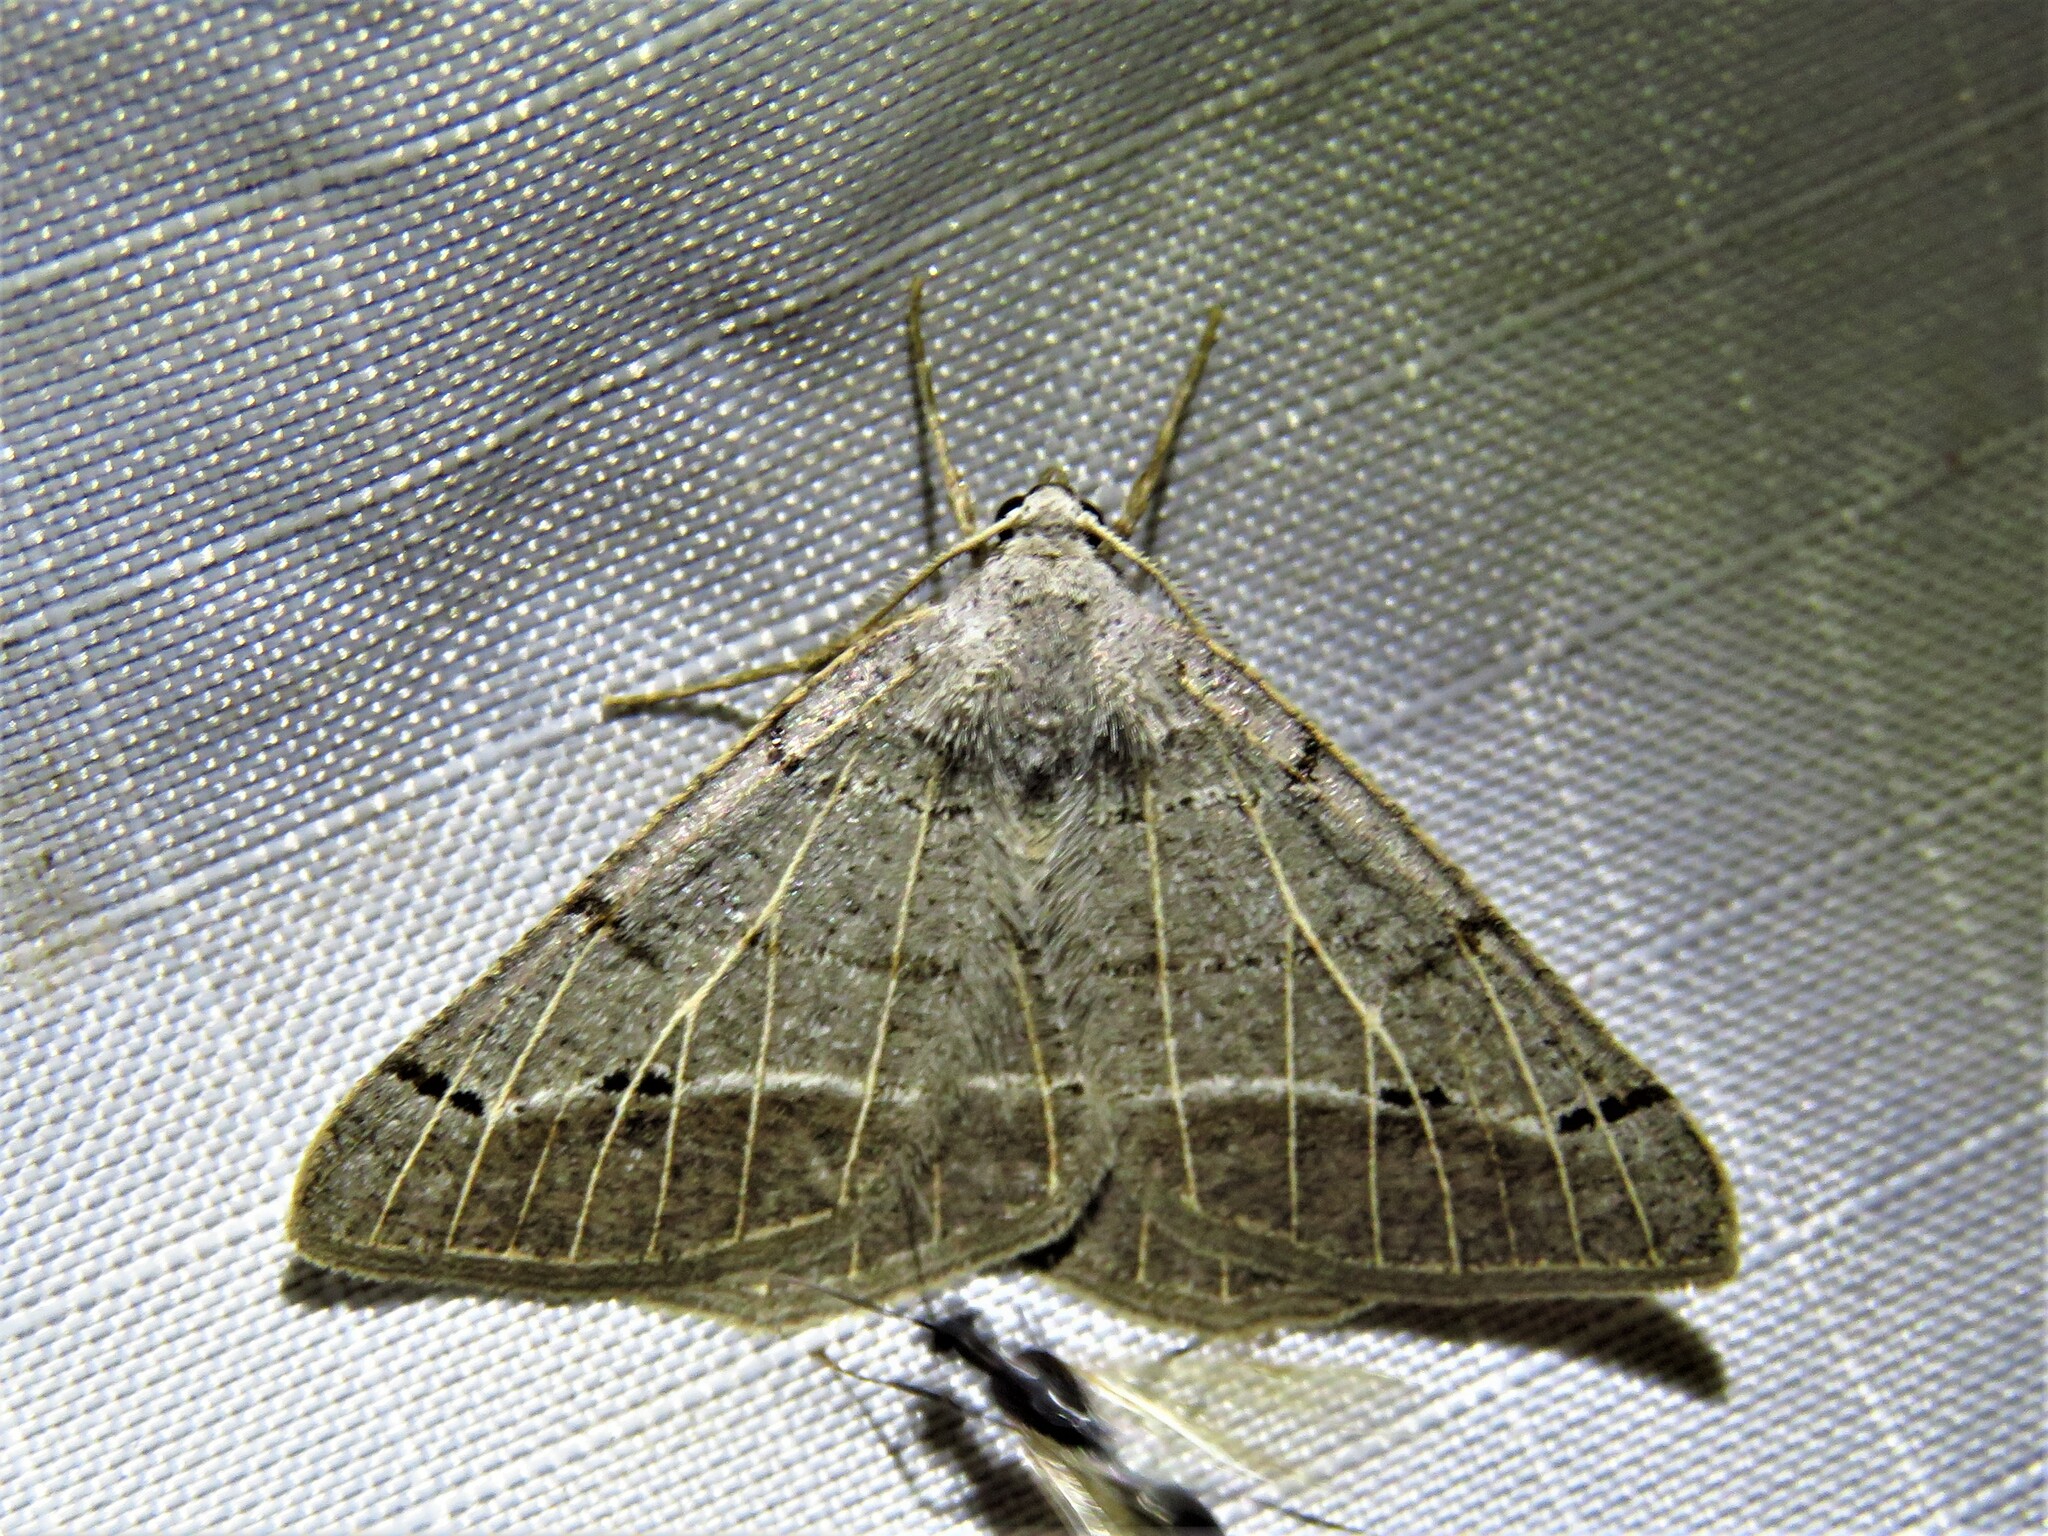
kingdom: Animalia
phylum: Arthropoda
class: Insecta
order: Lepidoptera
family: Geometridae
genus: Isturgia
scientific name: Isturgia dislocaria
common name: Pale-viened enconista
